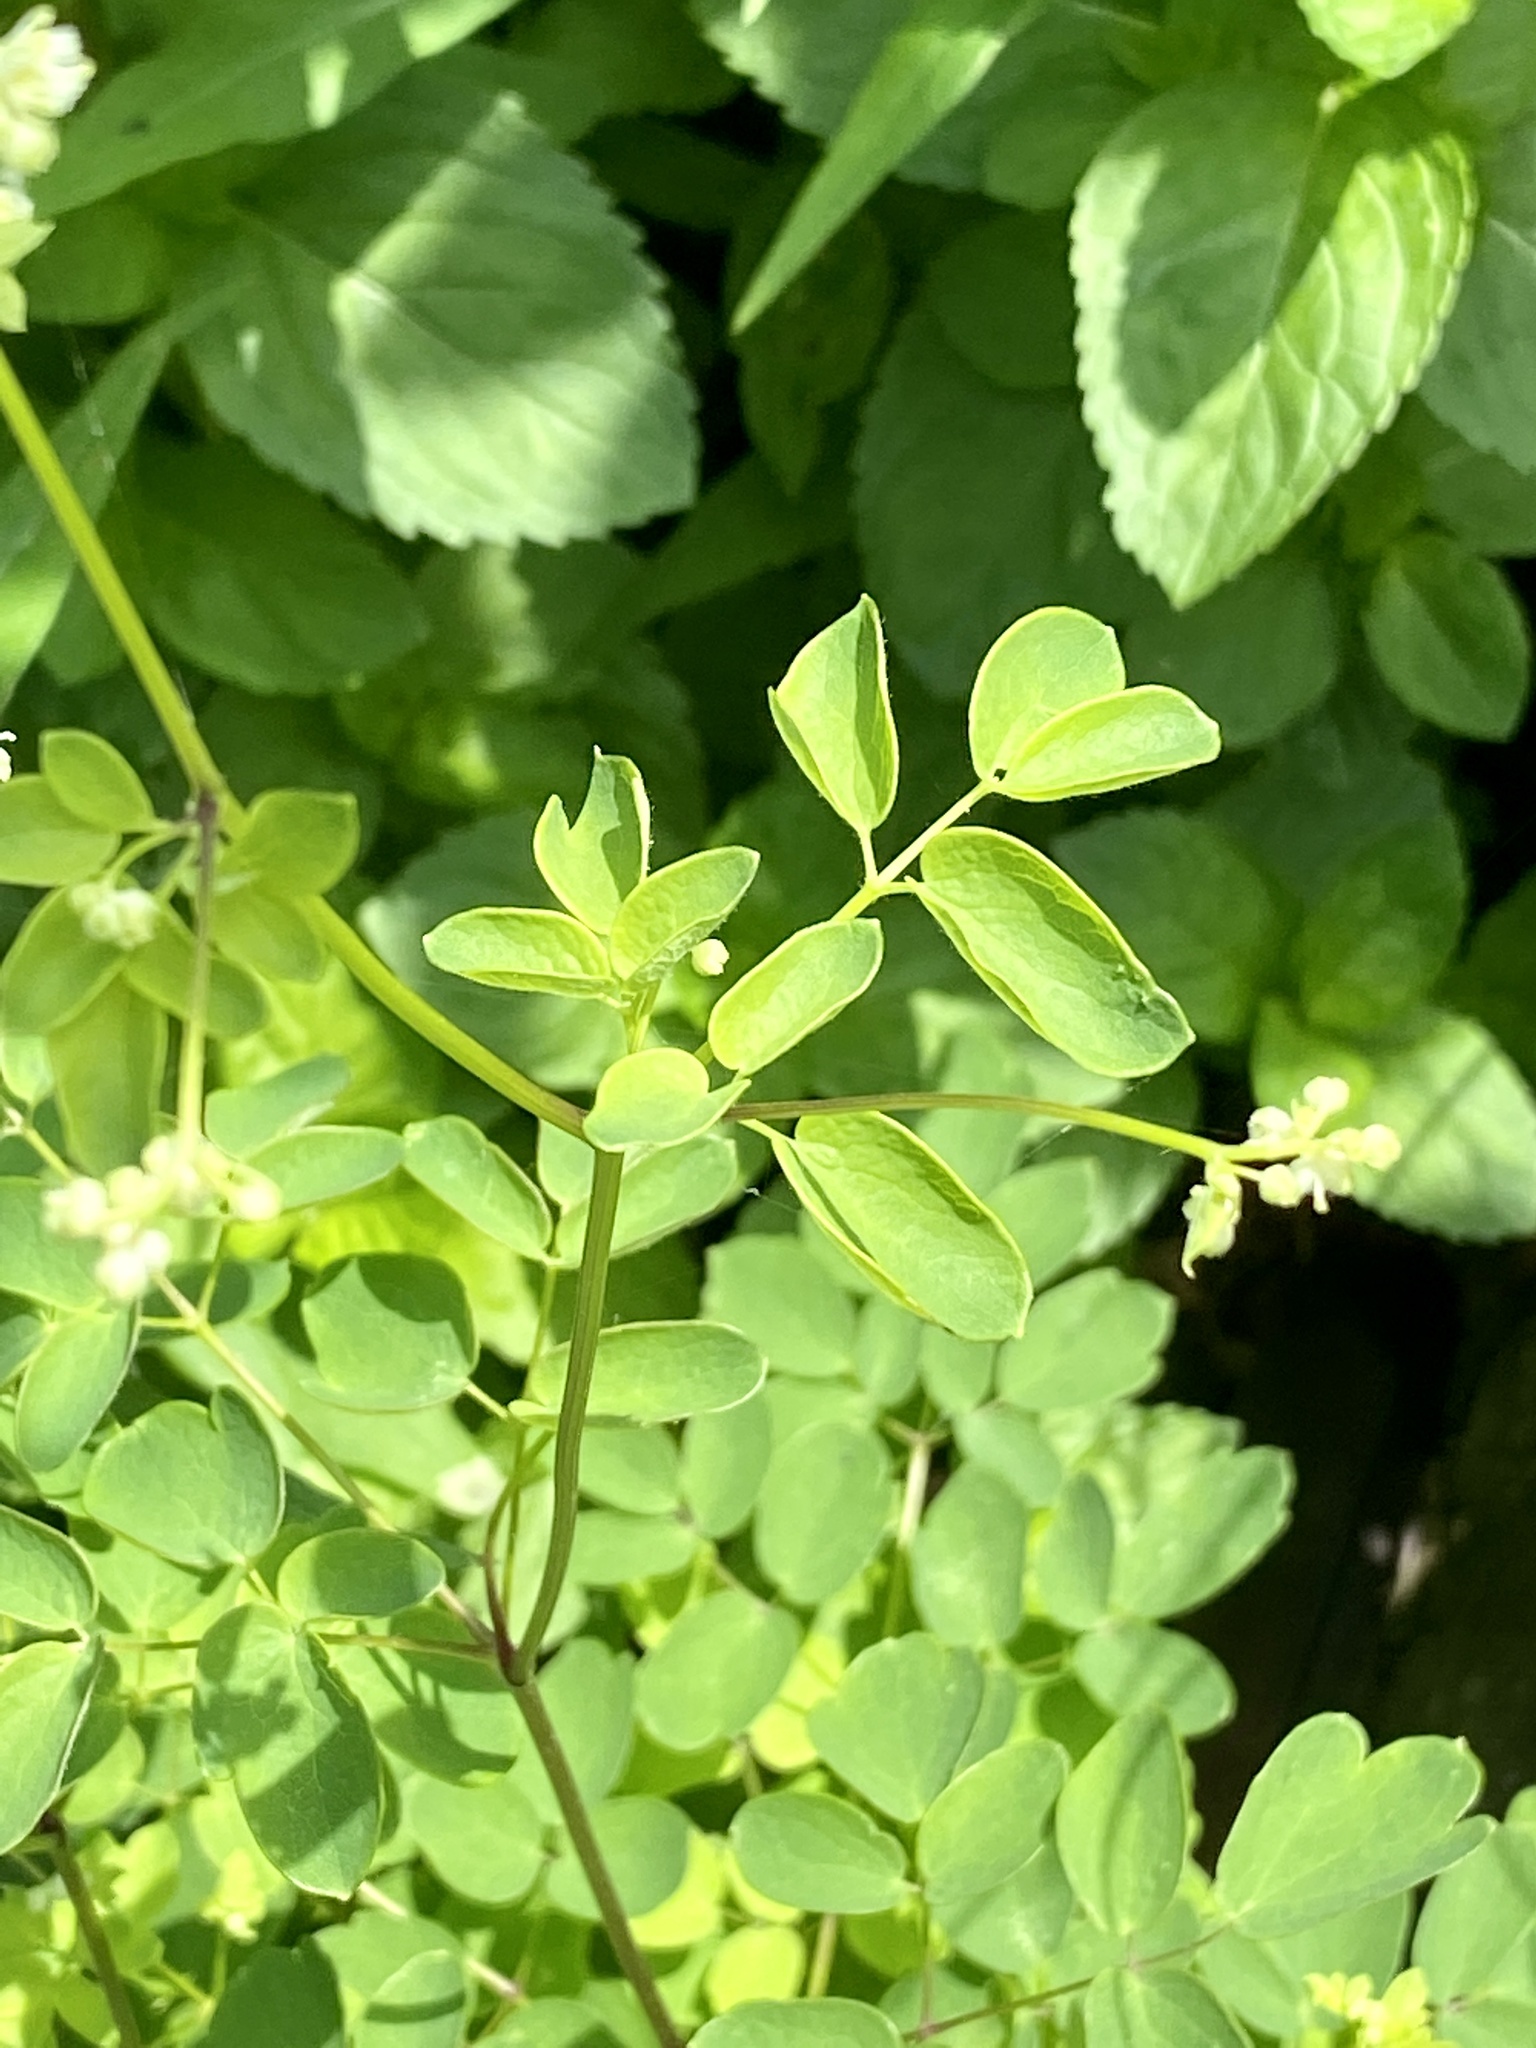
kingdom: Plantae
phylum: Tracheophyta
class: Magnoliopsida
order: Ranunculales
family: Ranunculaceae
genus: Thalictrum
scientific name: Thalictrum pubescens
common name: King-of-the-meadow
